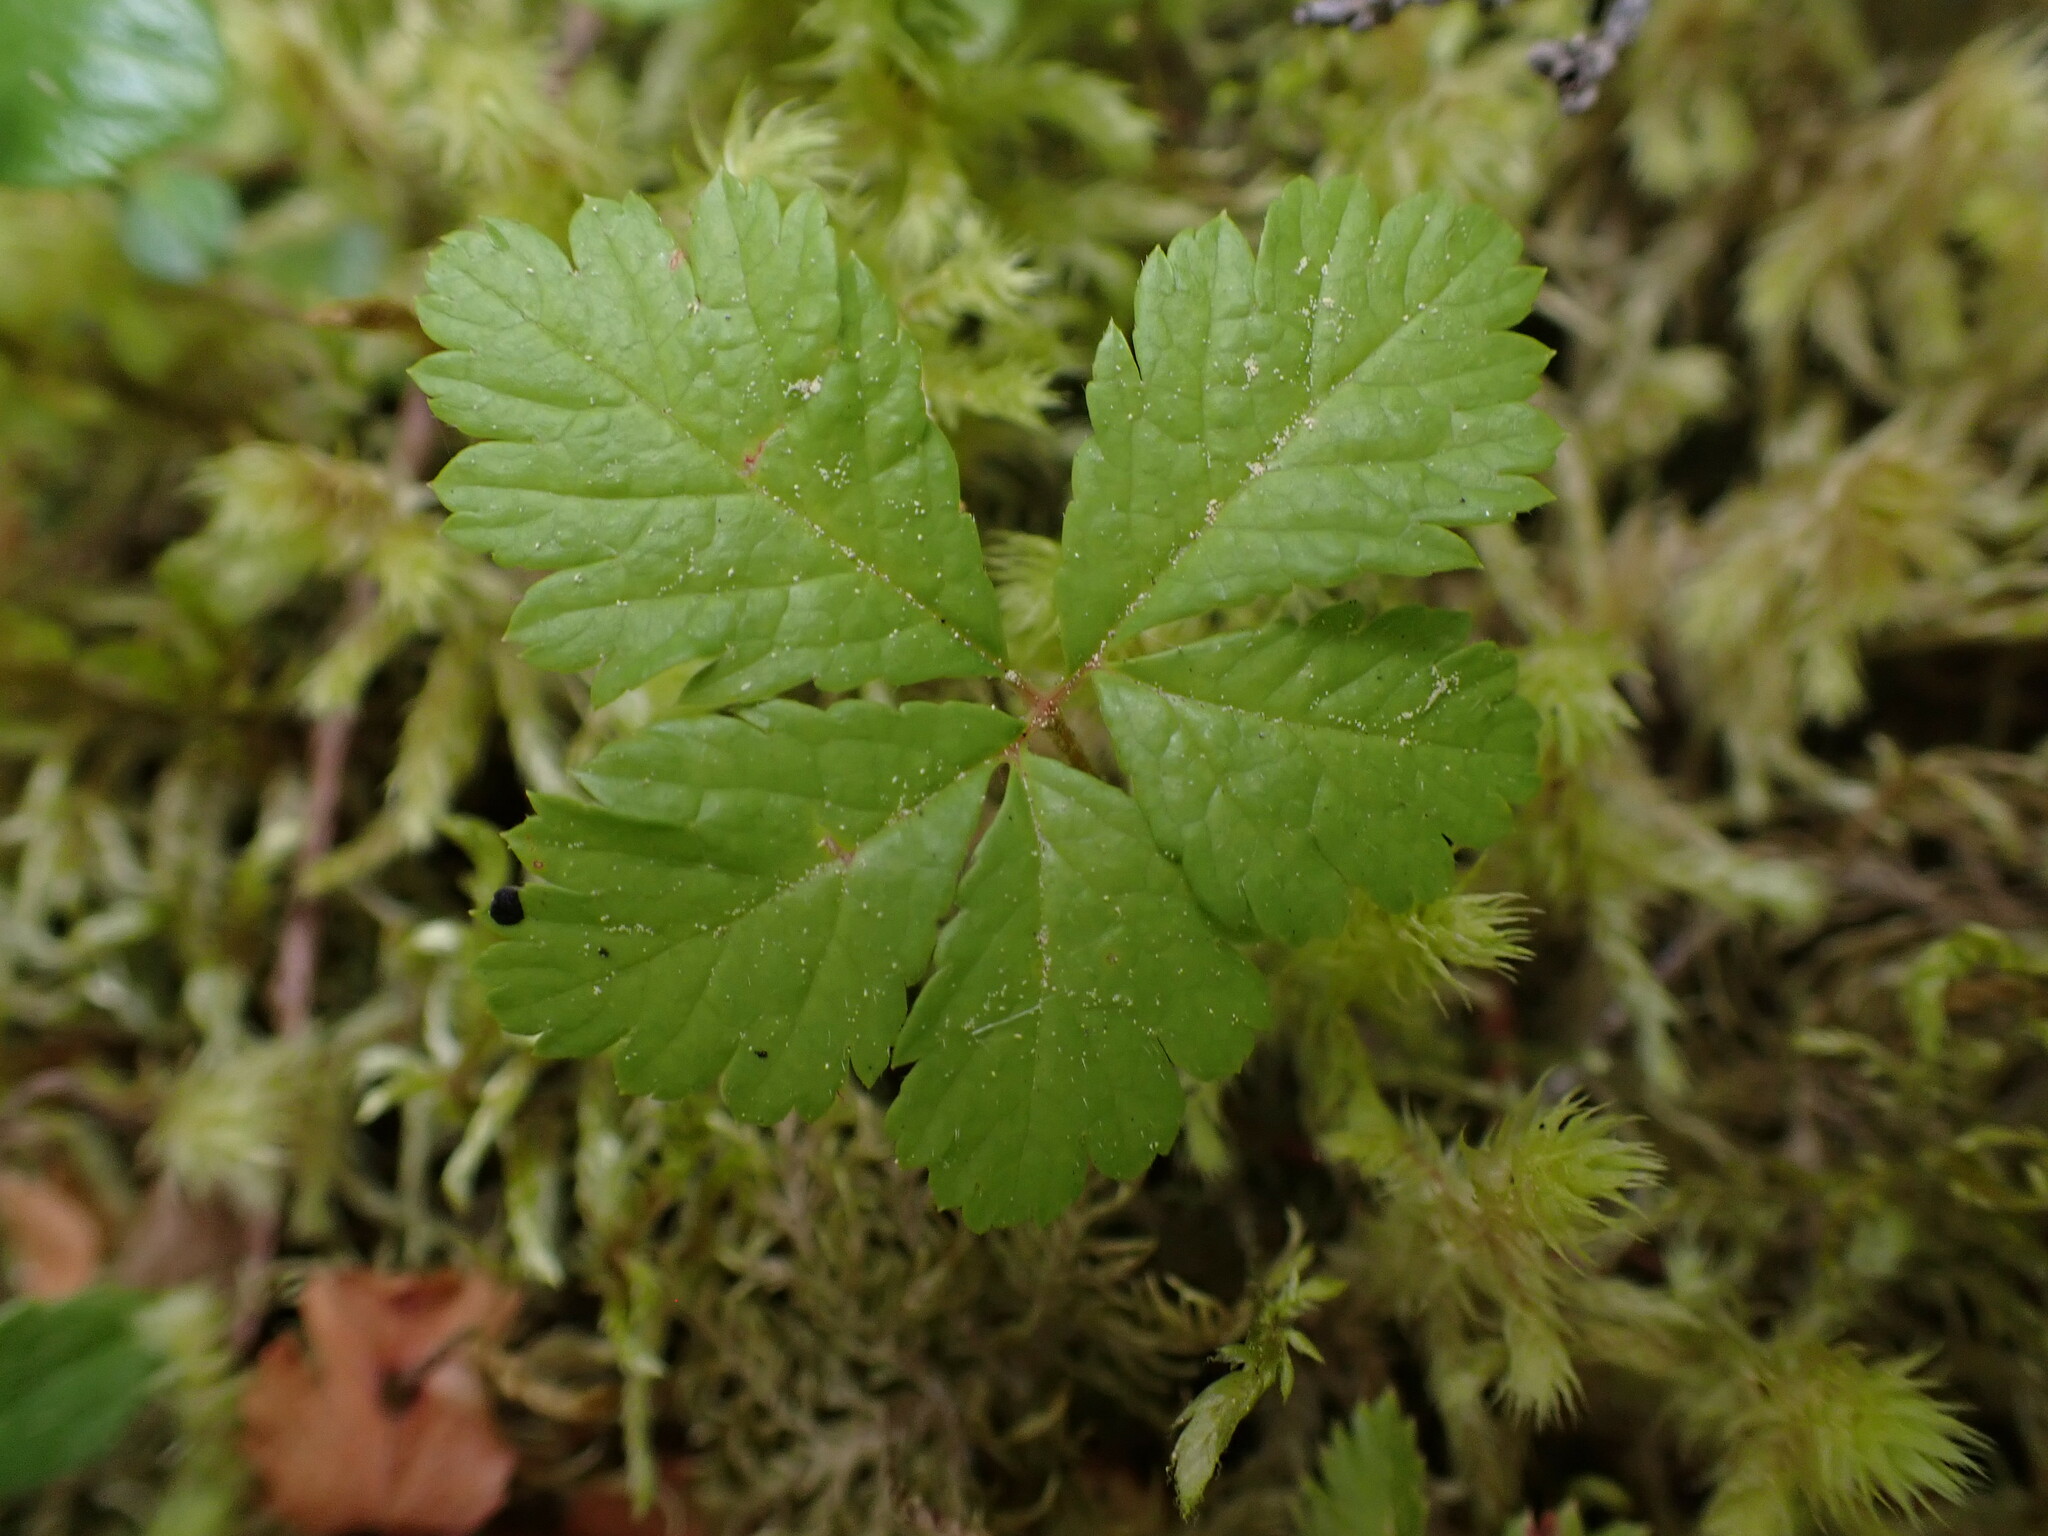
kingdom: Plantae
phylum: Tracheophyta
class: Magnoliopsida
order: Rosales
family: Rosaceae
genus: Rubus
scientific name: Rubus pedatus
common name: Creeping raspberry
